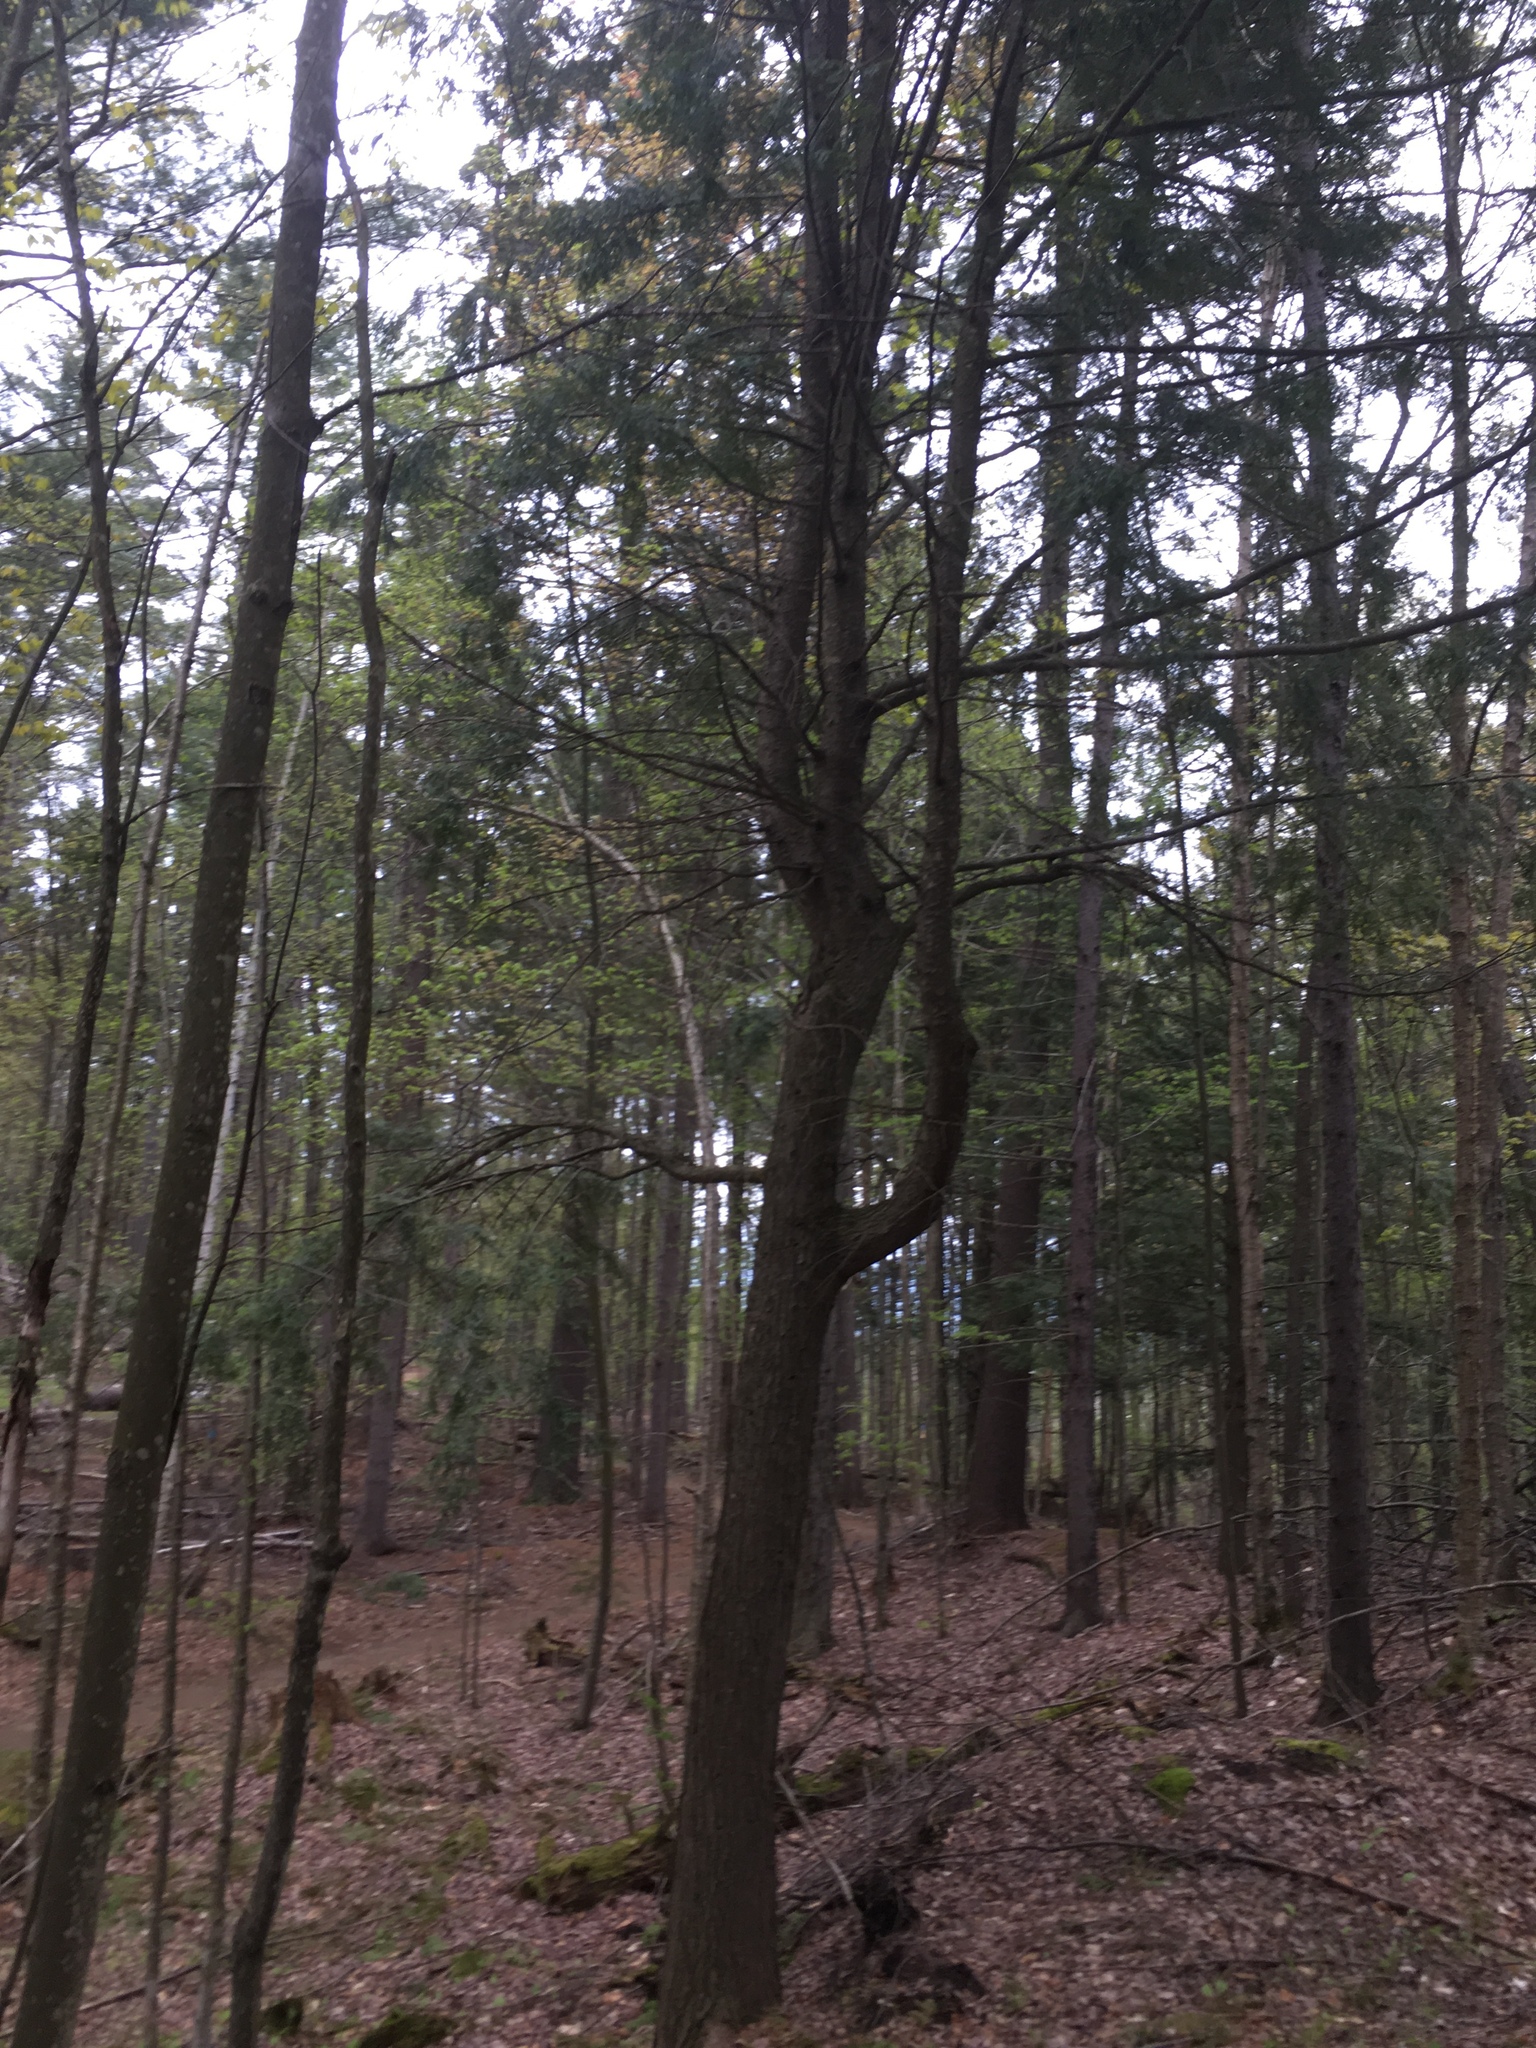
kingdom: Plantae
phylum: Tracheophyta
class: Pinopsida
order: Pinales
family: Pinaceae
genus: Tsuga
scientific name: Tsuga canadensis
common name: Eastern hemlock
